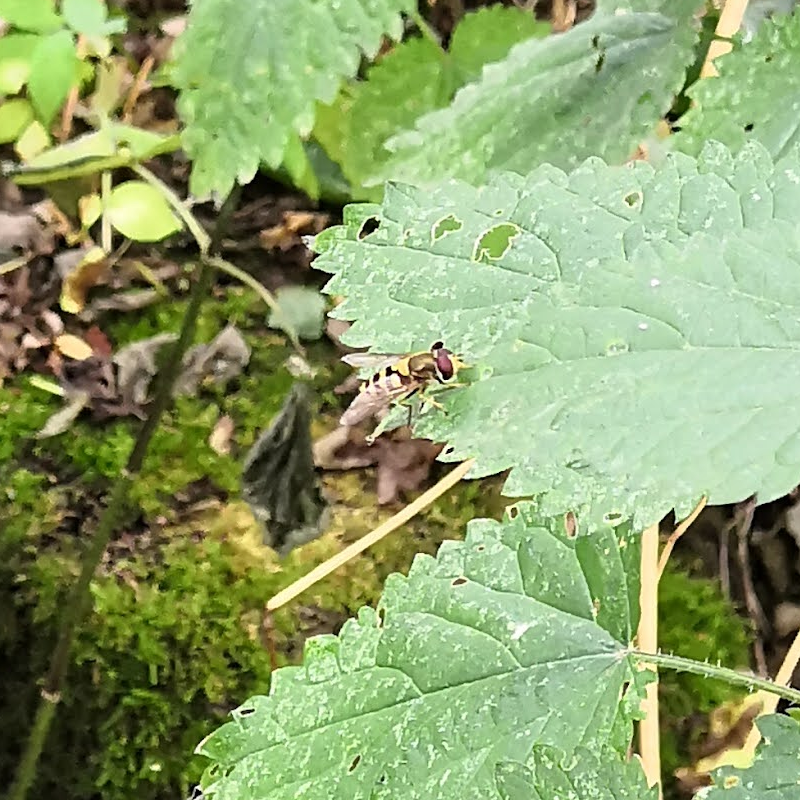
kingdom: Animalia
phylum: Arthropoda
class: Insecta
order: Diptera
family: Syrphidae
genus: Syrphus
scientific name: Syrphus
